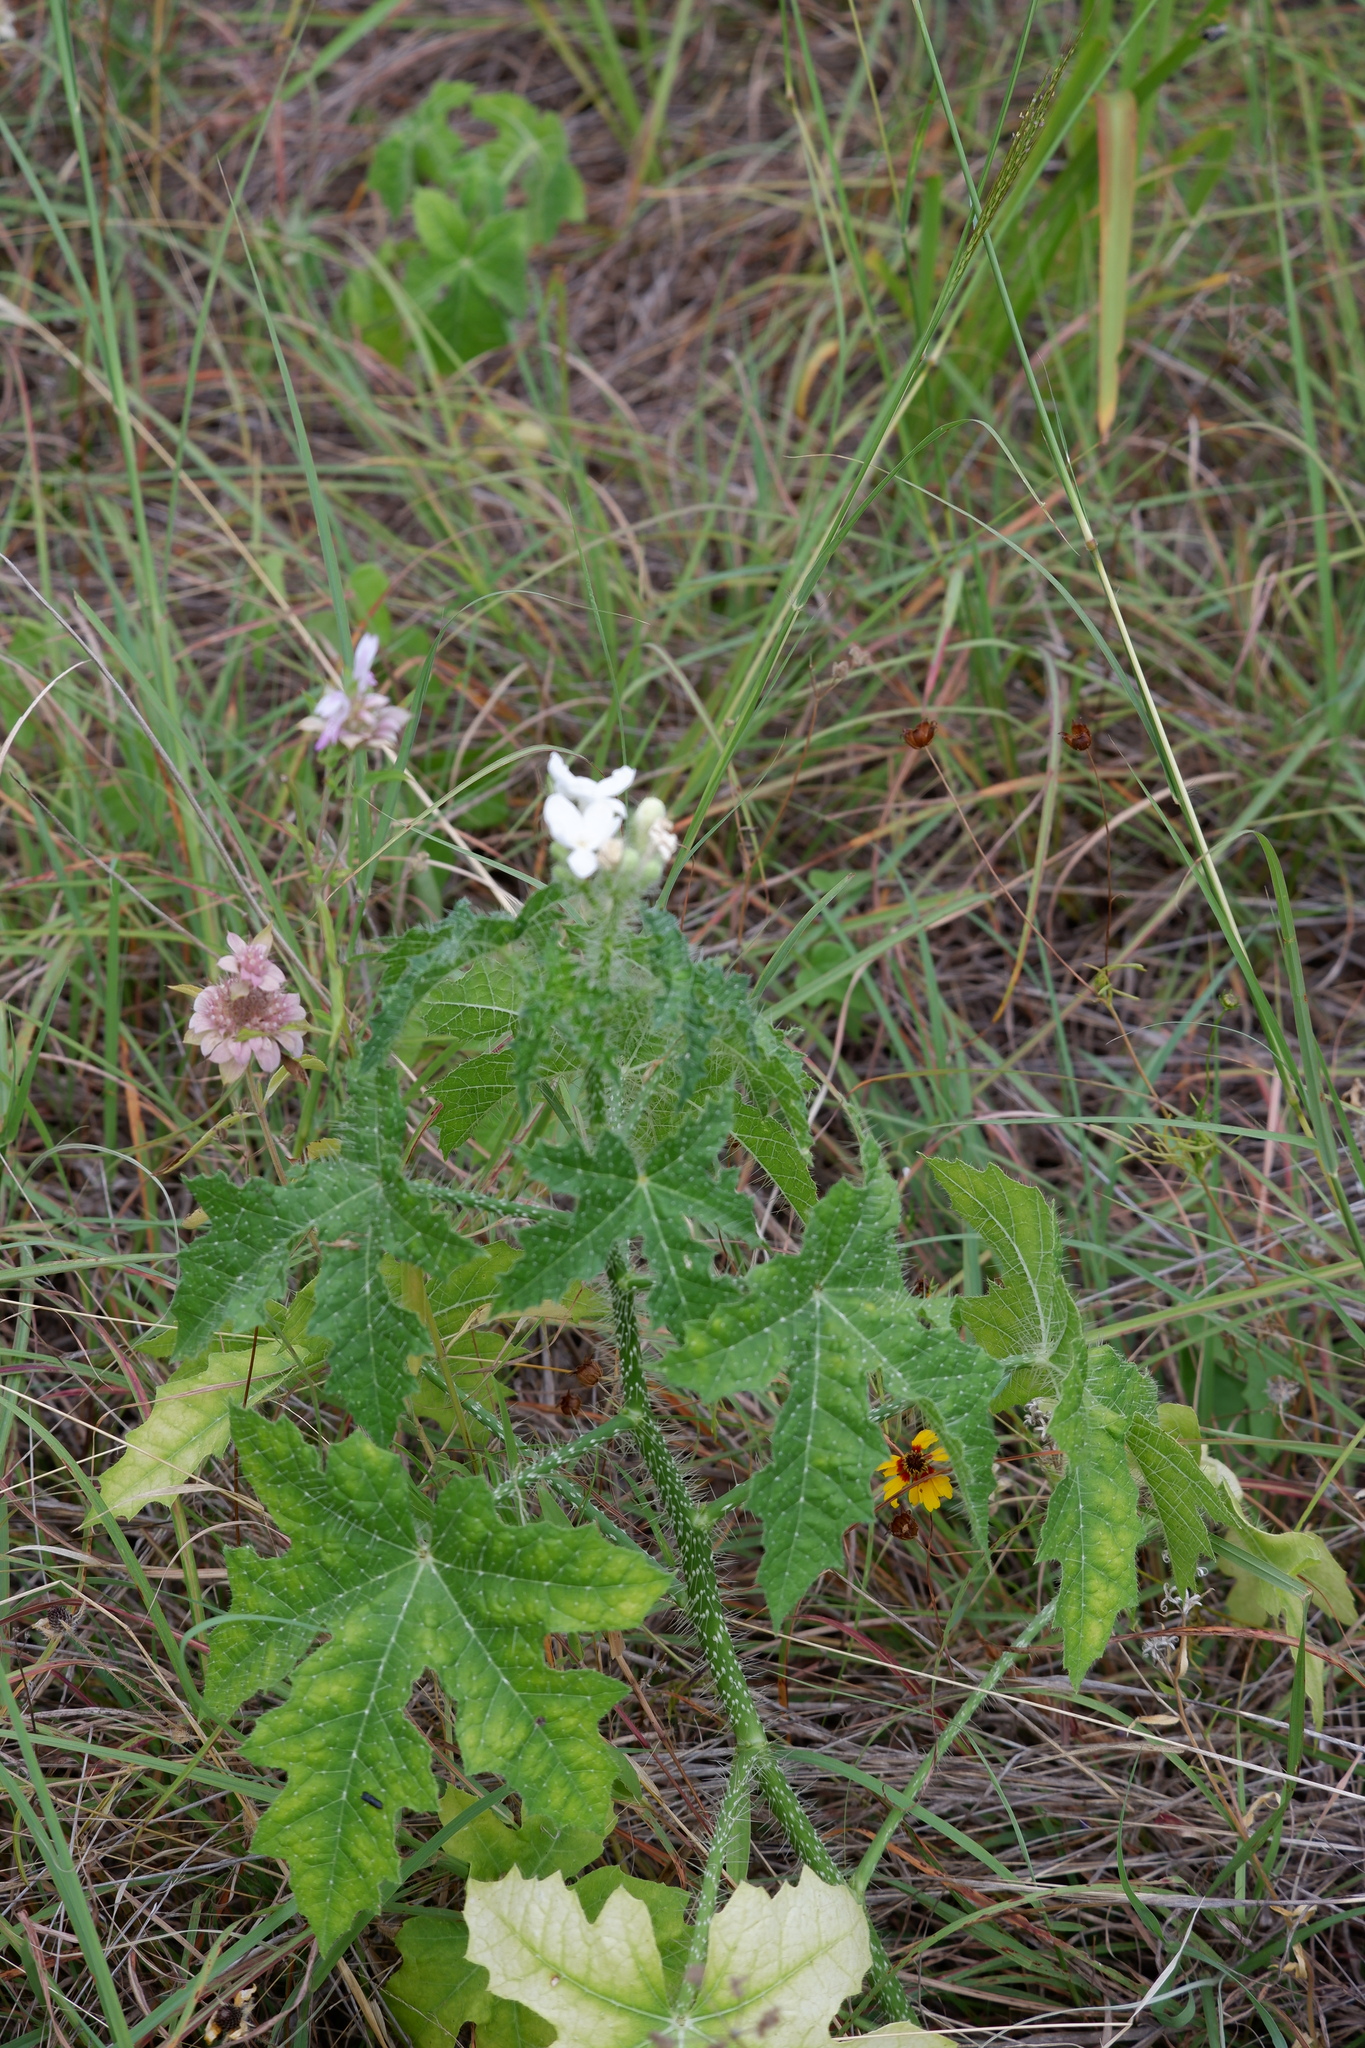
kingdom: Plantae
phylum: Tracheophyta
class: Magnoliopsida
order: Malpighiales
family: Euphorbiaceae
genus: Cnidoscolus
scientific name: Cnidoscolus texanus
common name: Texas bull-nettle
